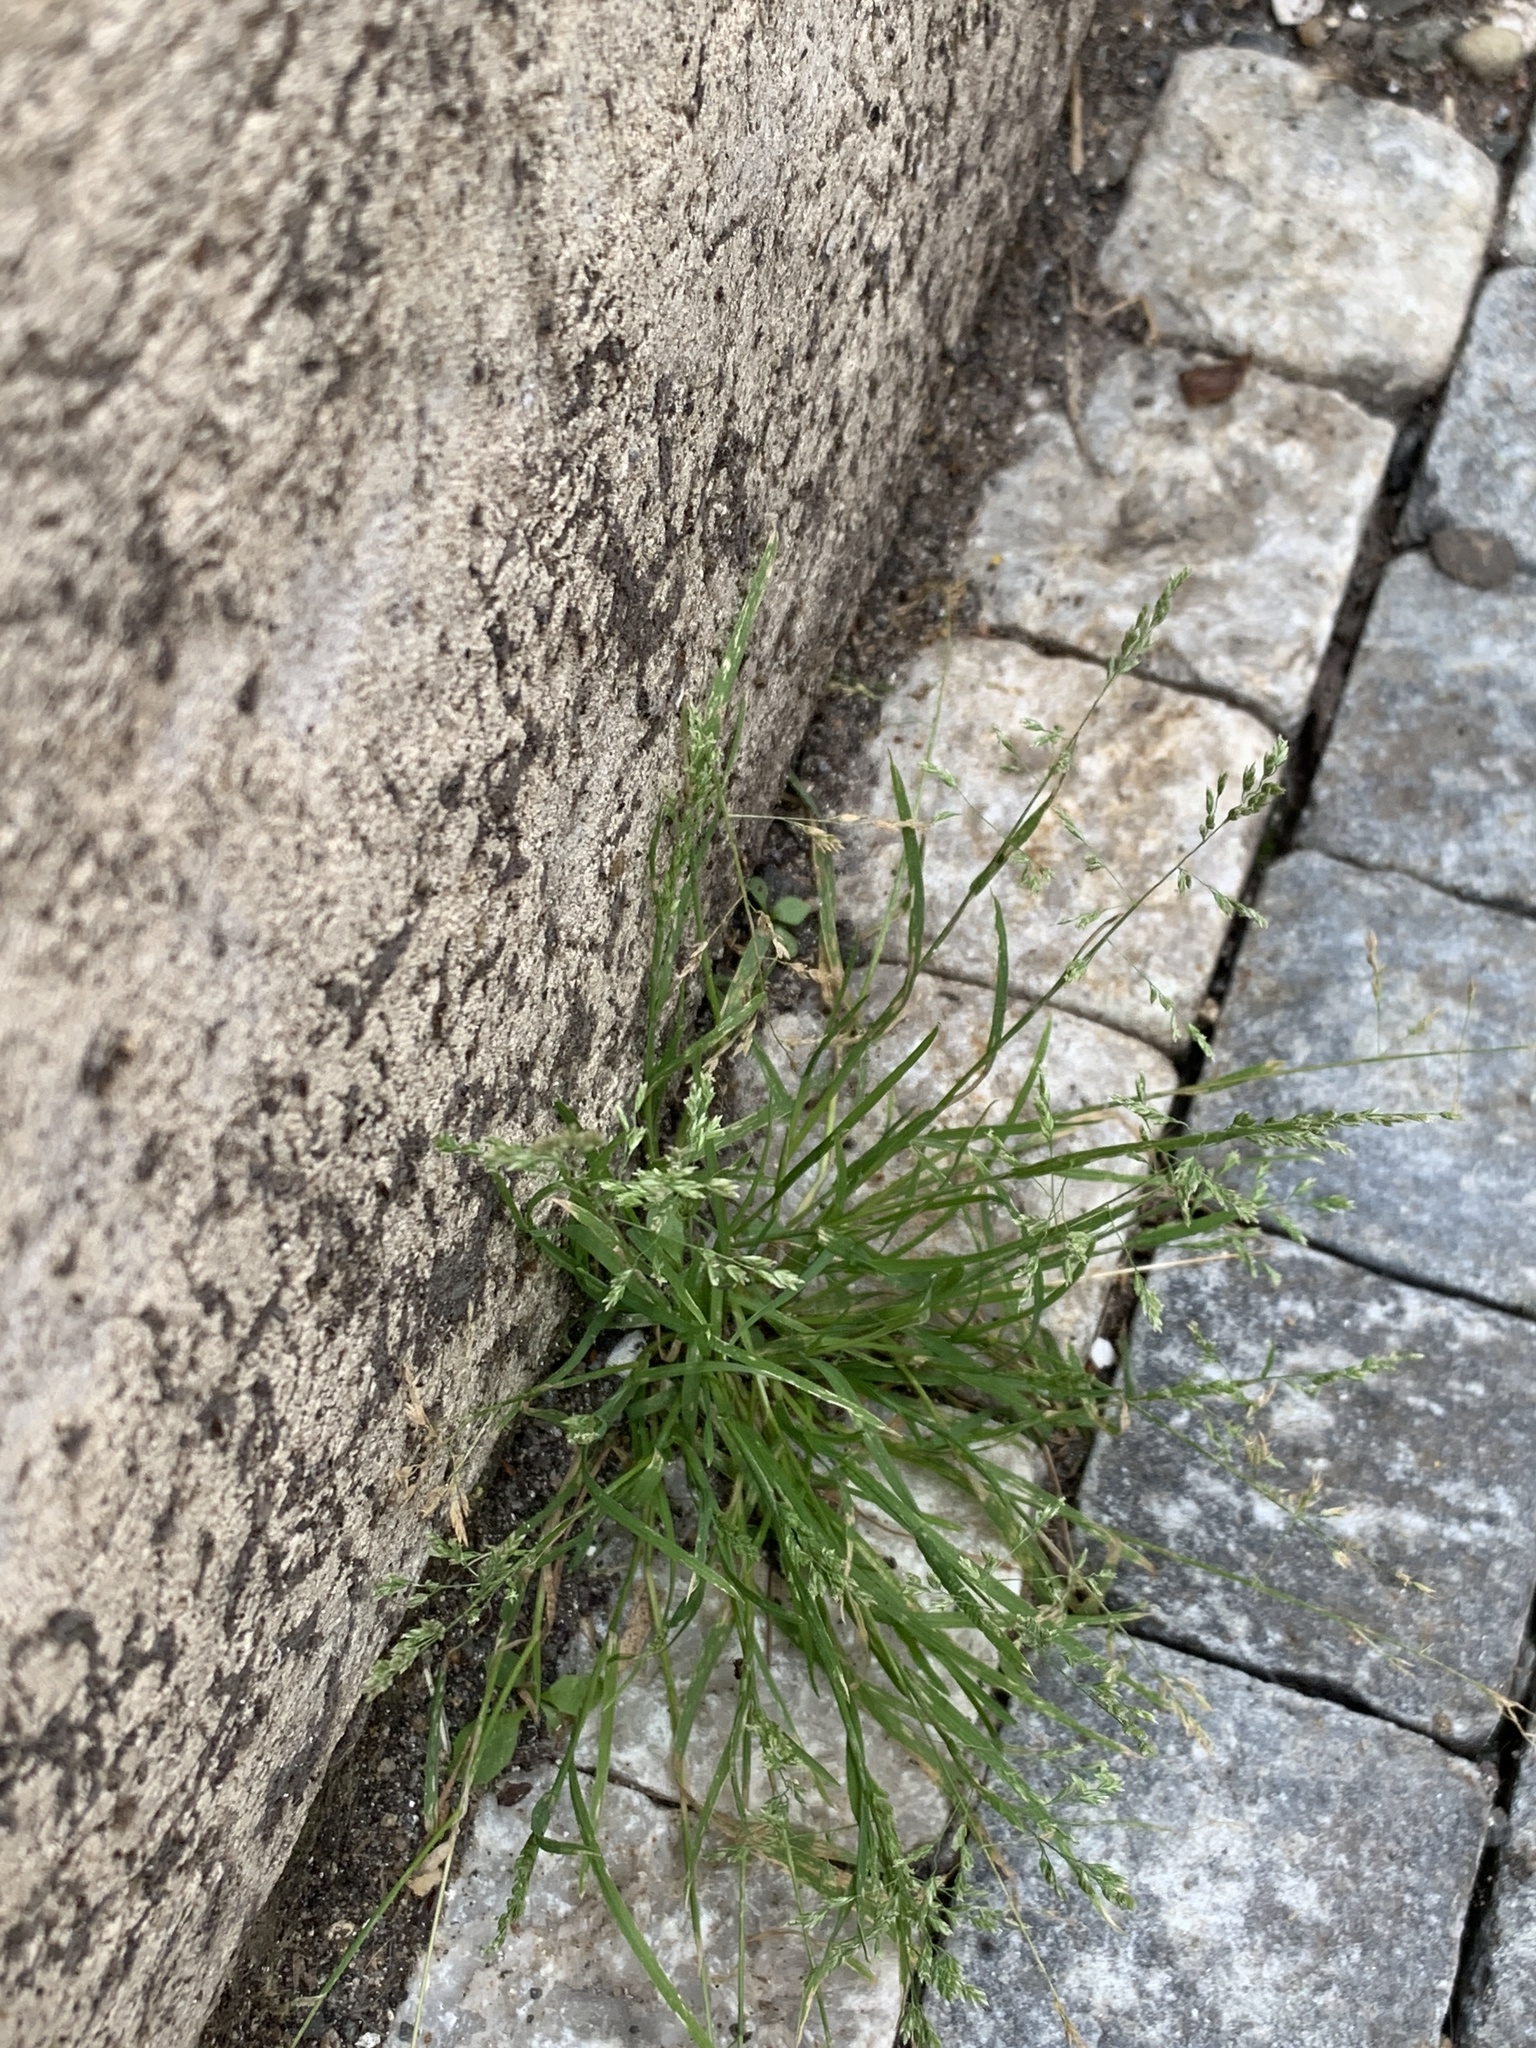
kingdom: Plantae
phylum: Tracheophyta
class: Liliopsida
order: Poales
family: Poaceae
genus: Poa
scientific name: Poa annua
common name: Annual bluegrass
